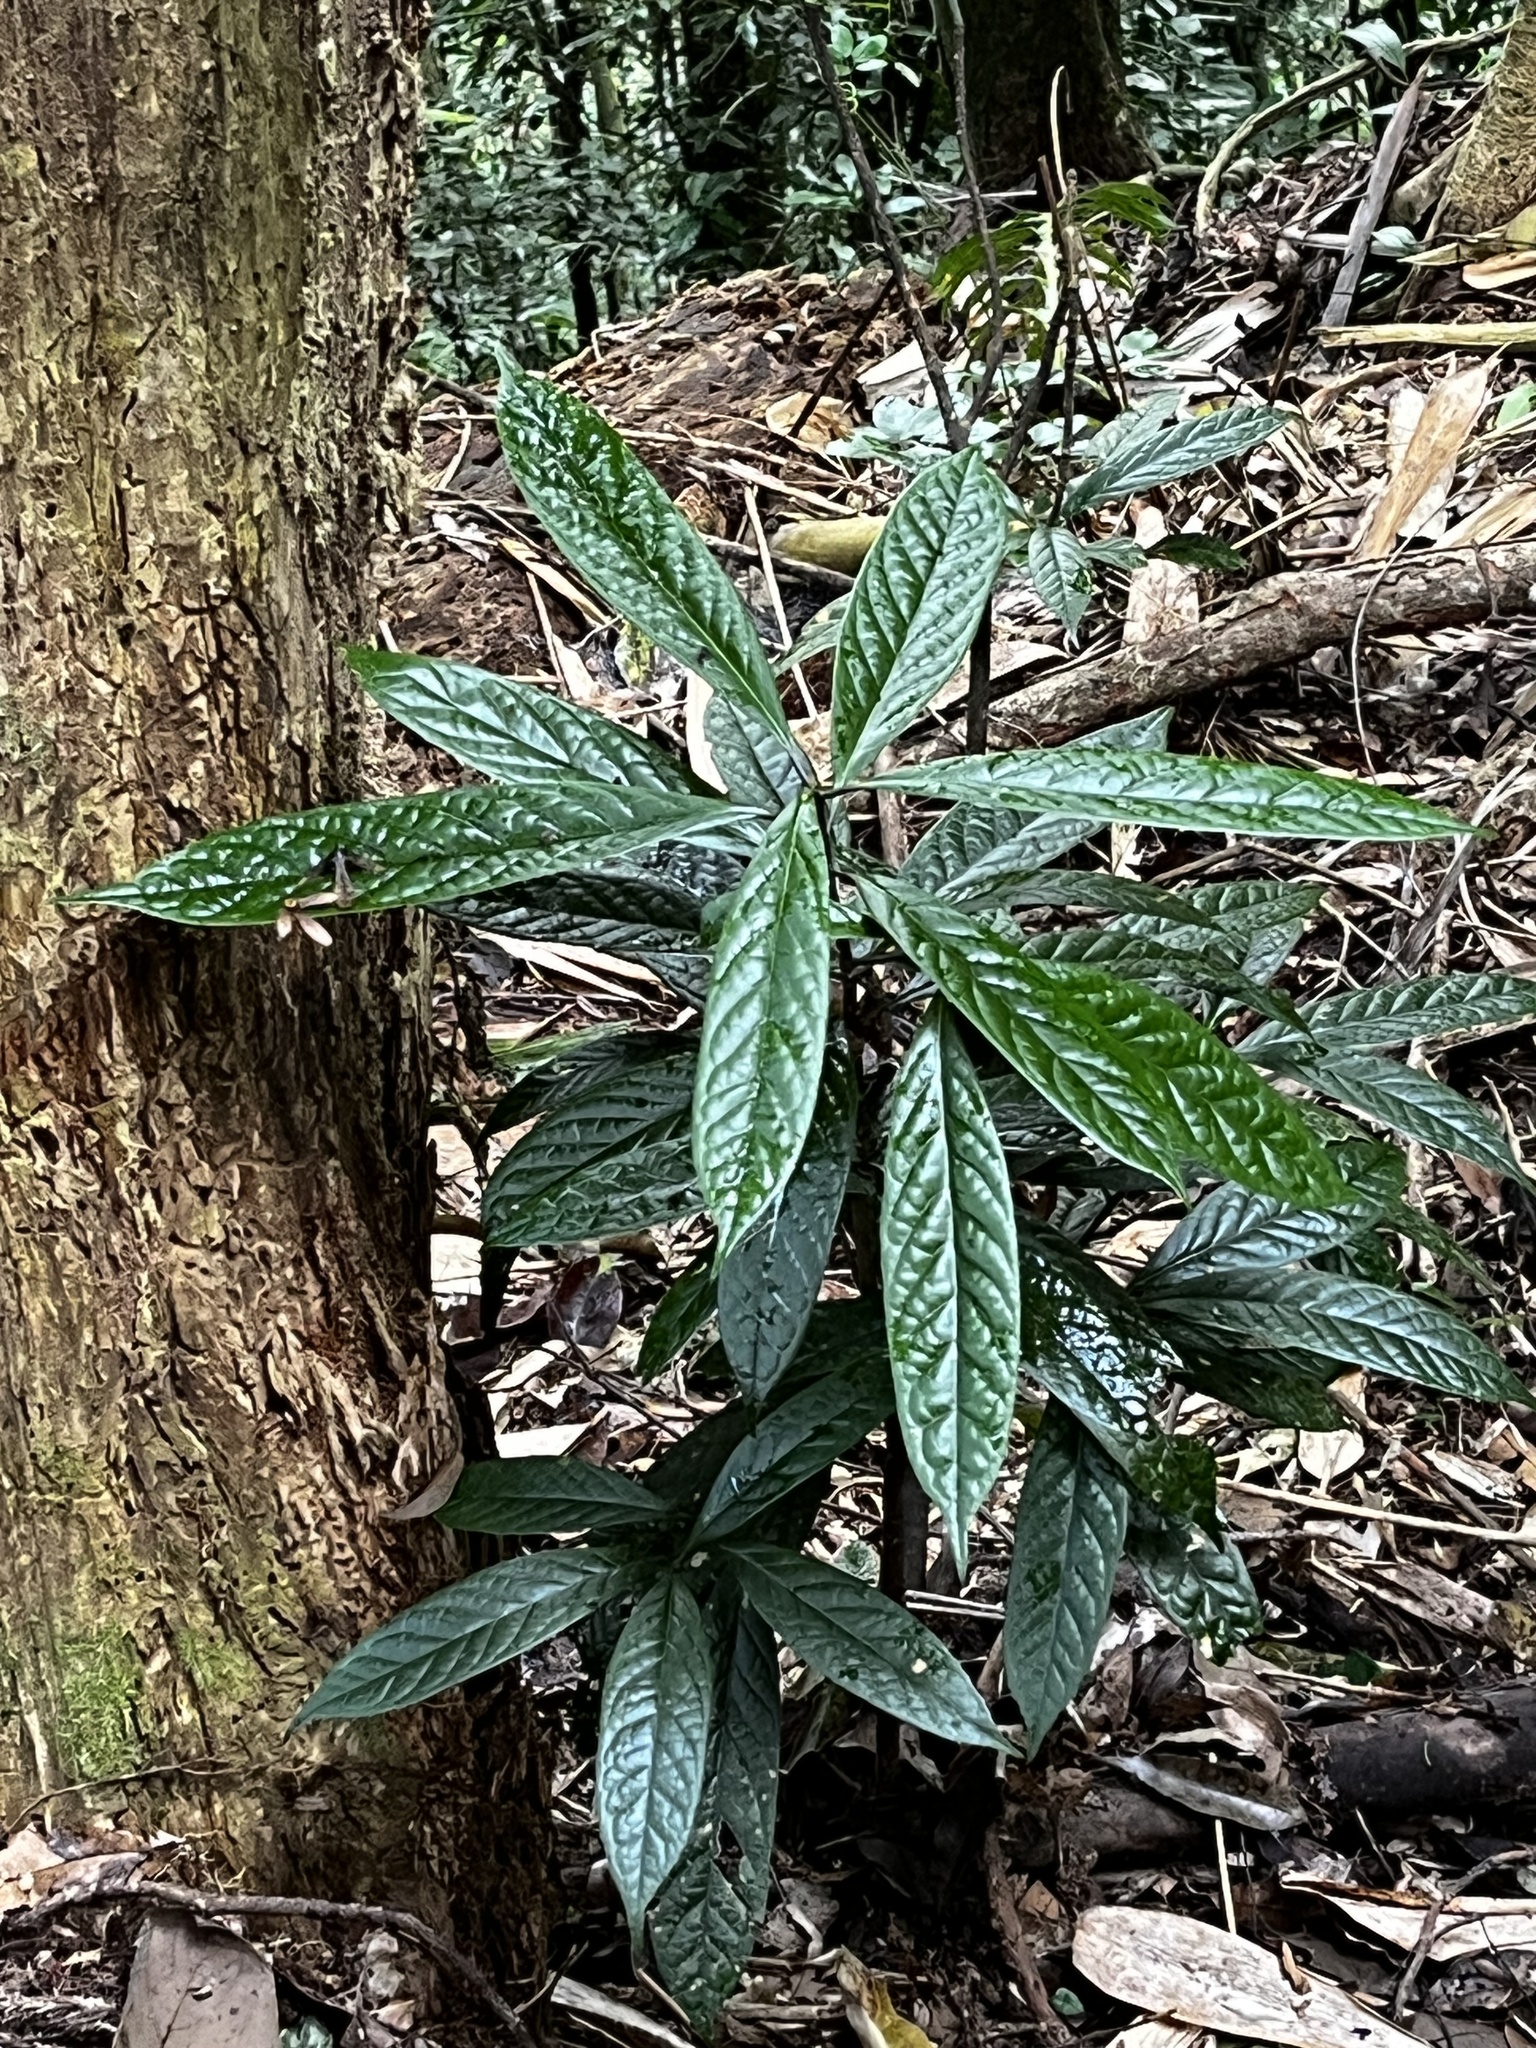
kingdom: Plantae
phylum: Tracheophyta
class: Magnoliopsida
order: Ericales
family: Symplocaceae
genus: Symplocos
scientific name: Symplocos stellaris
